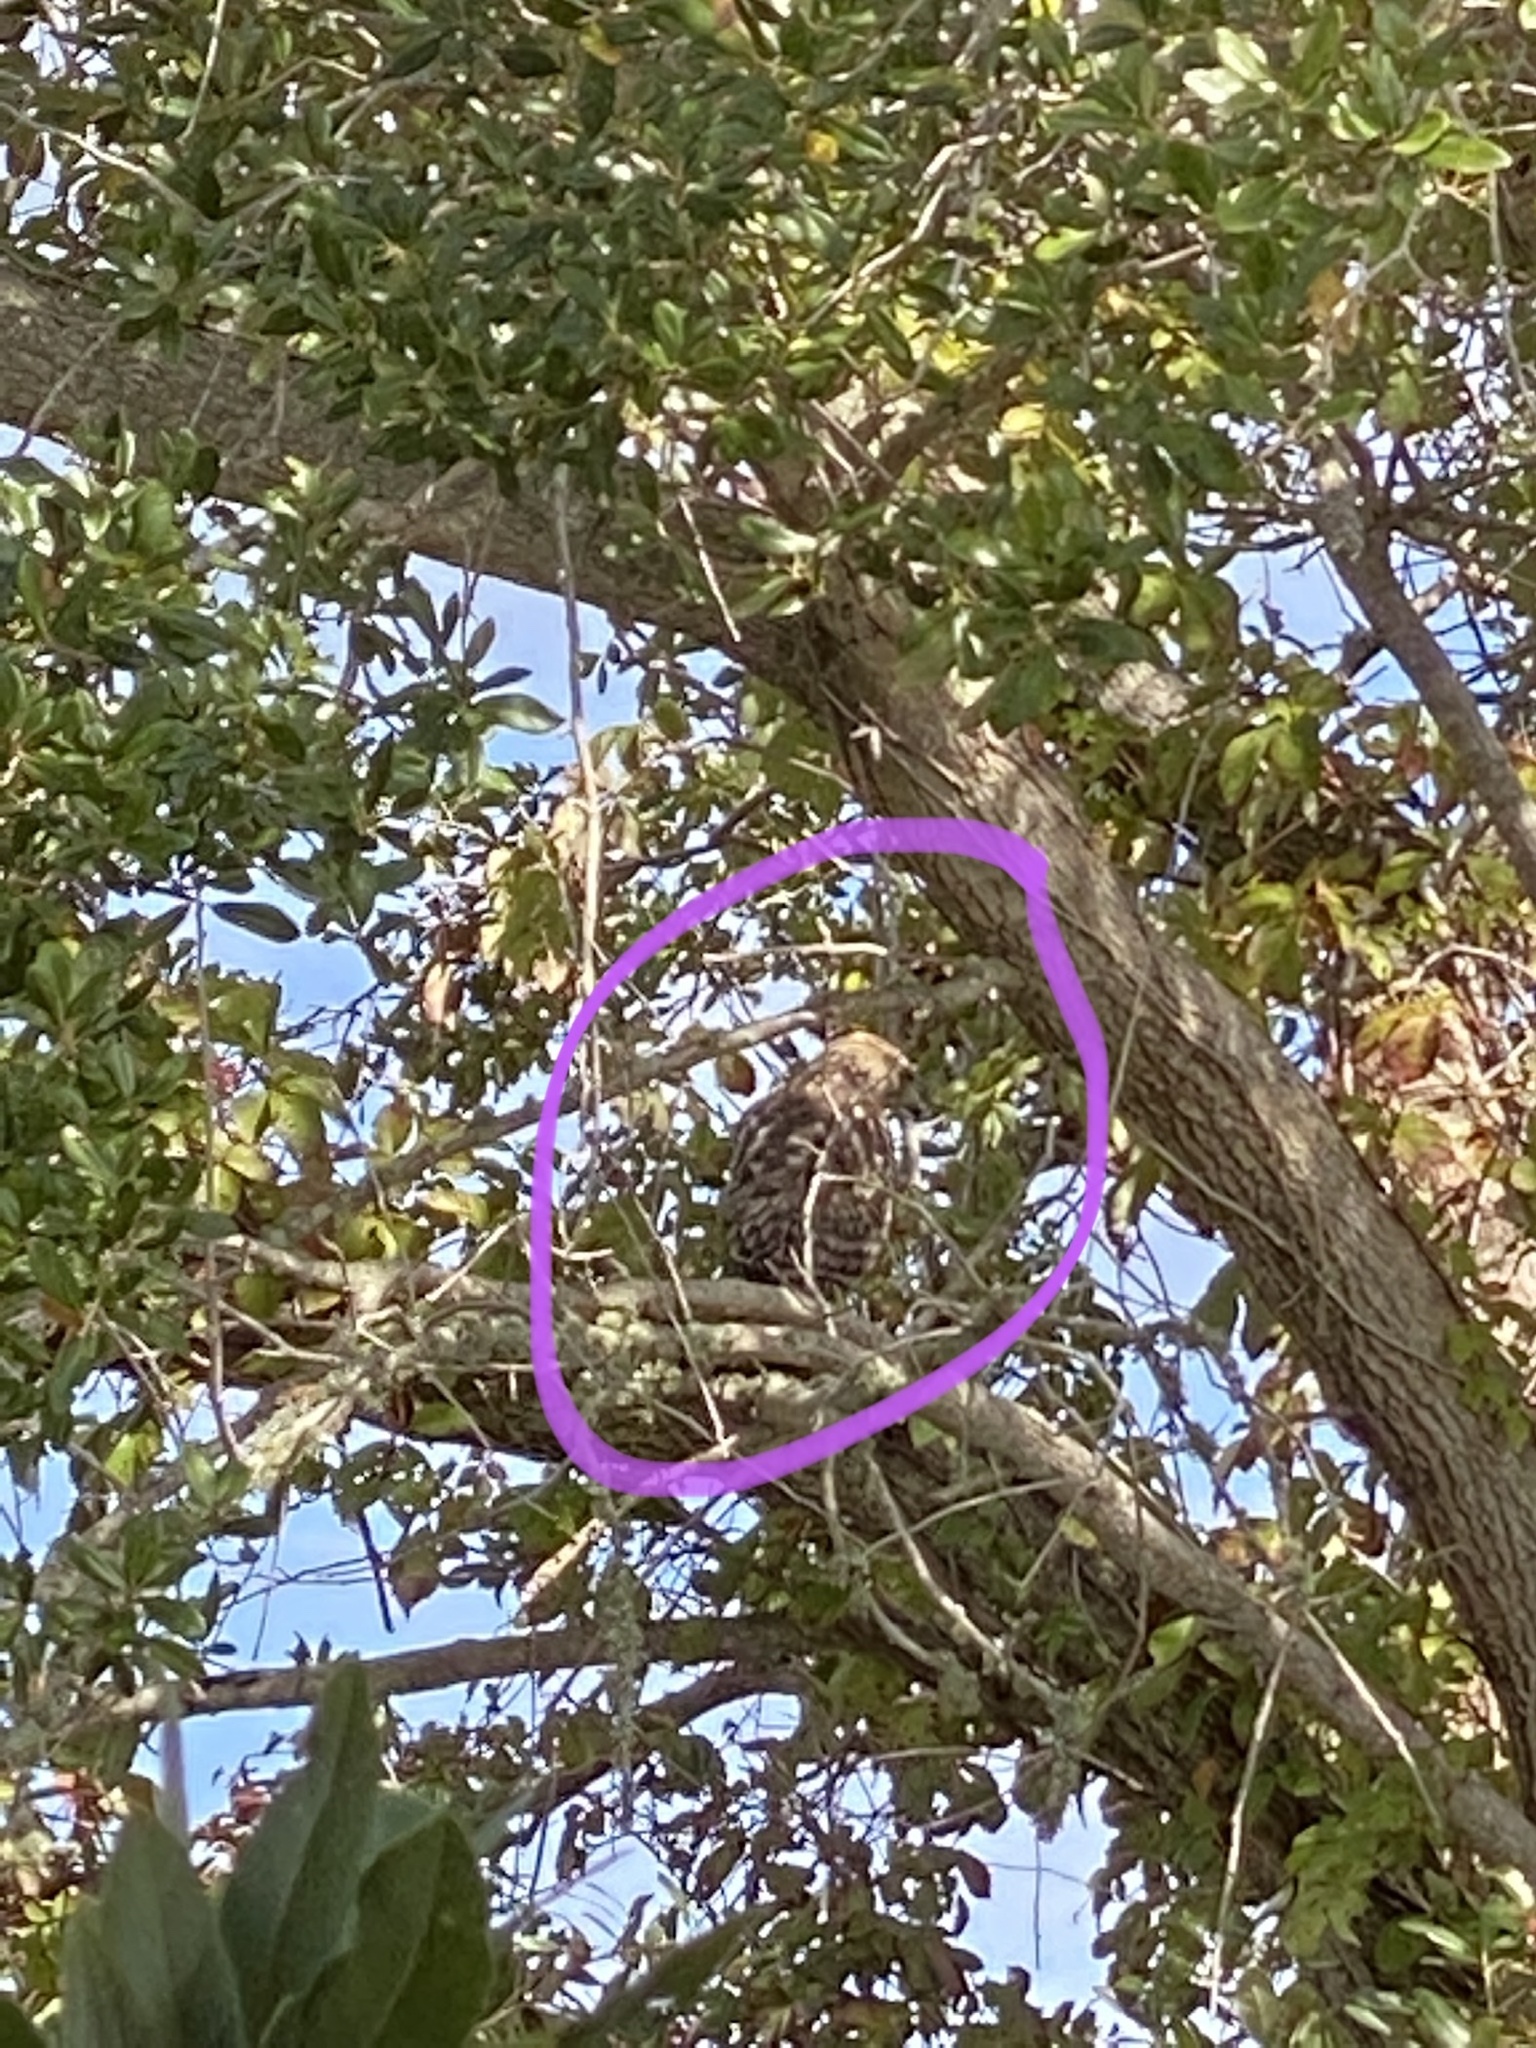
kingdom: Animalia
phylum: Chordata
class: Aves
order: Accipitriformes
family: Accipitridae
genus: Buteo
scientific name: Buteo lineatus
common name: Red-shouldered hawk
